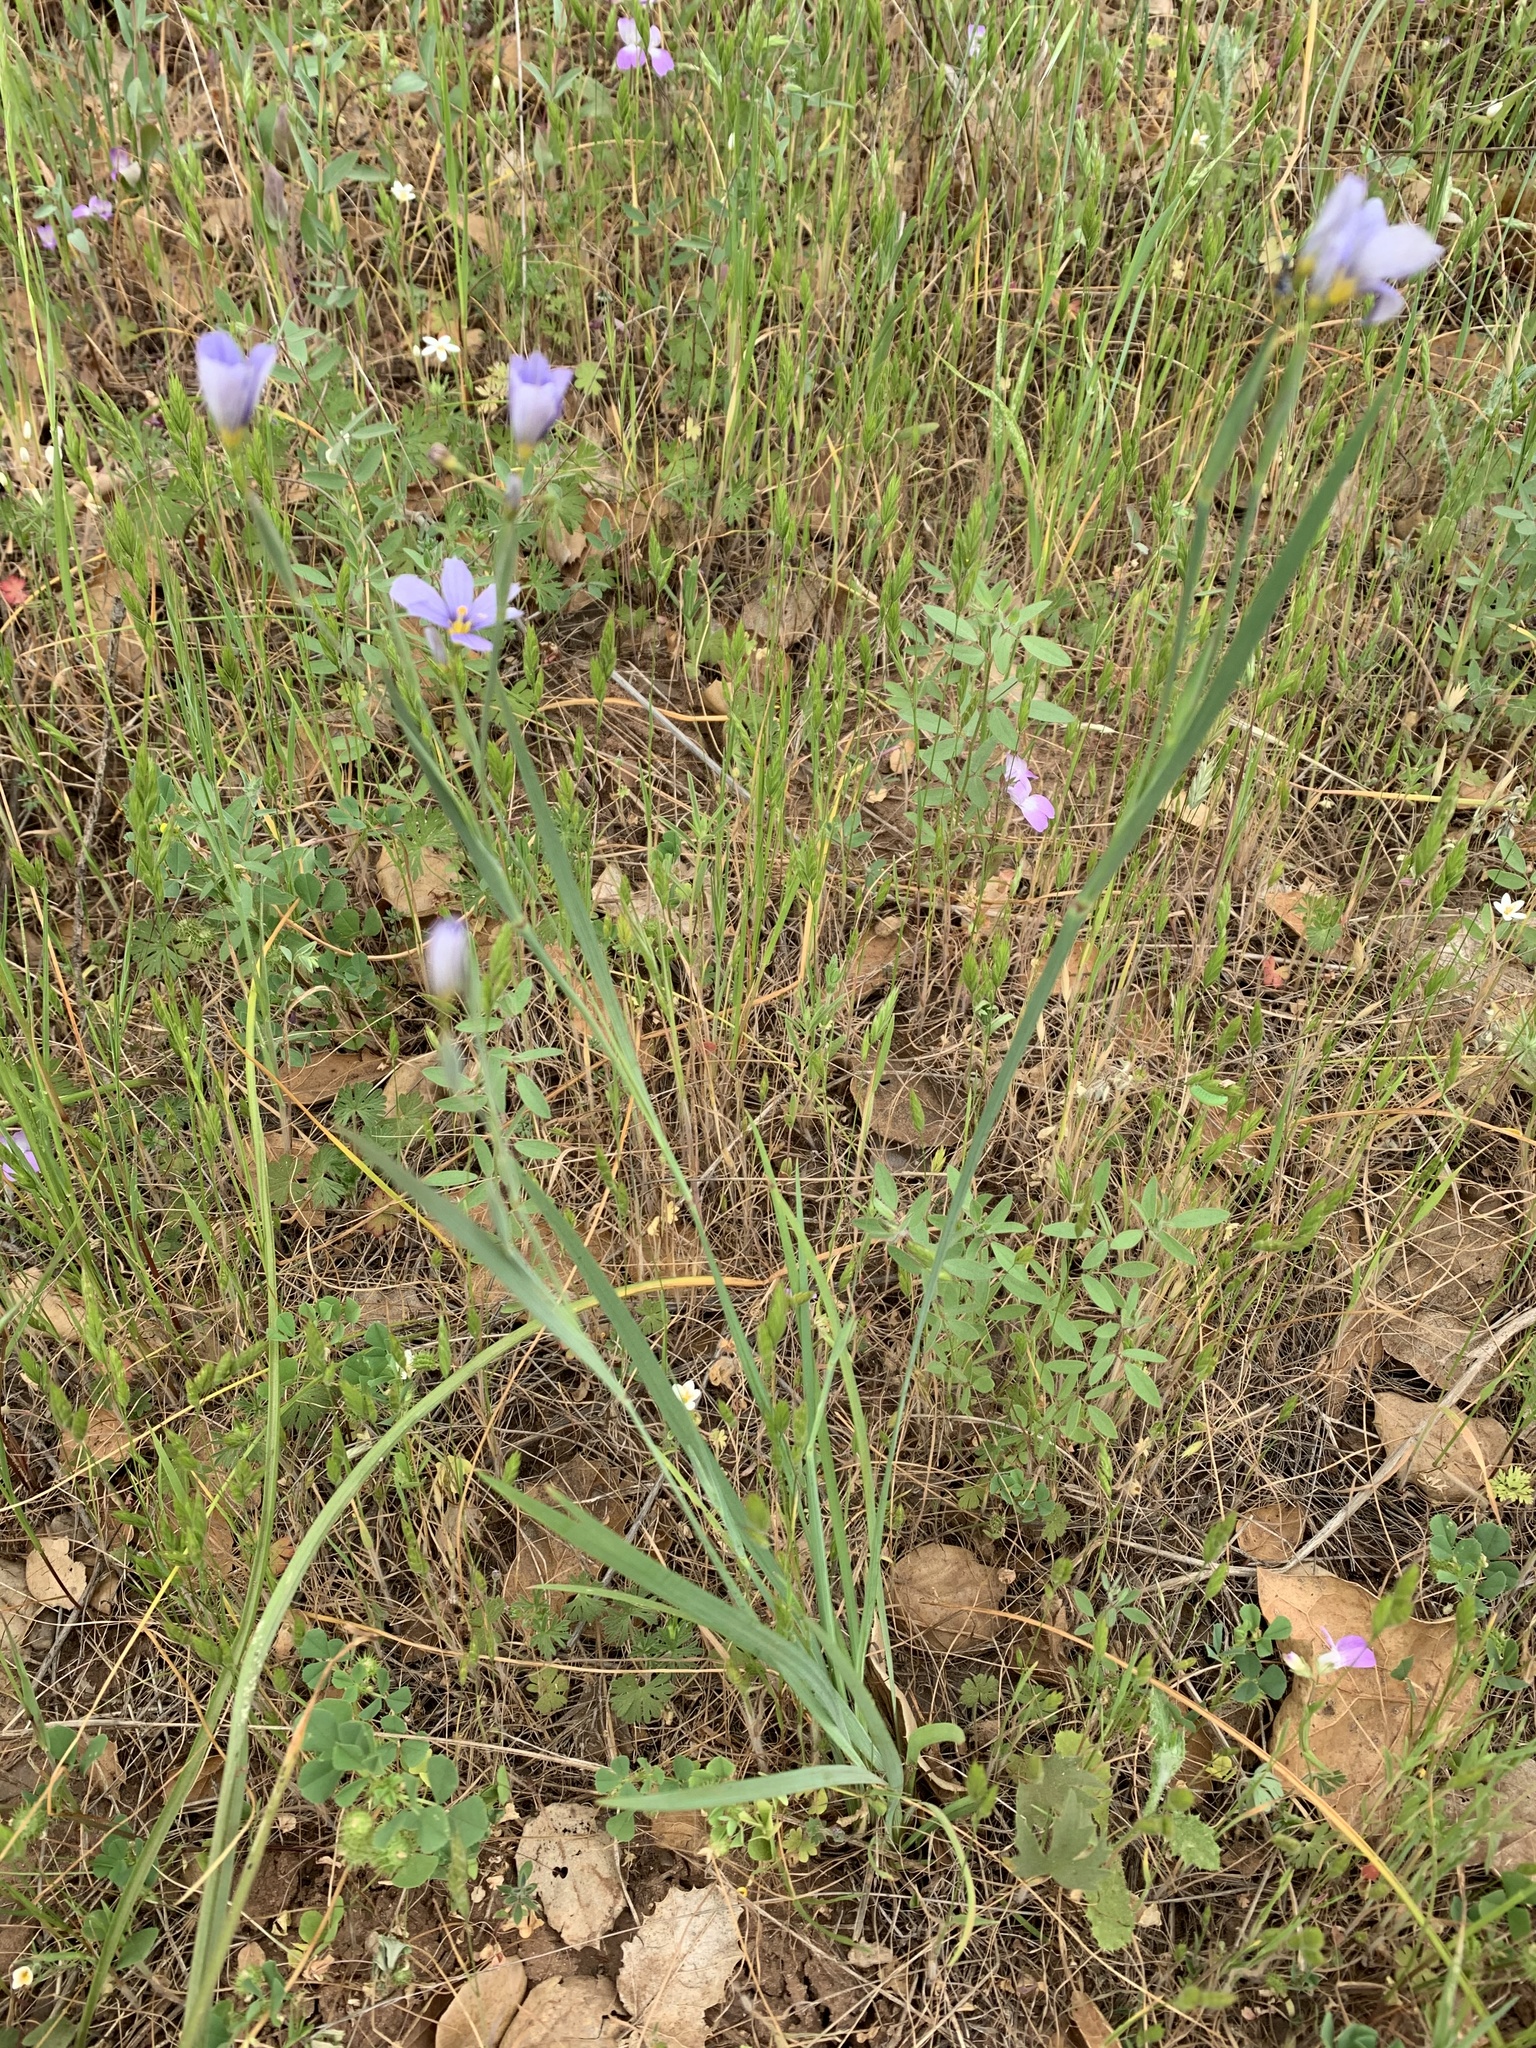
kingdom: Plantae
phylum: Tracheophyta
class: Liliopsida
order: Asparagales
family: Iridaceae
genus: Sisyrinchium
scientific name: Sisyrinchium bellum
